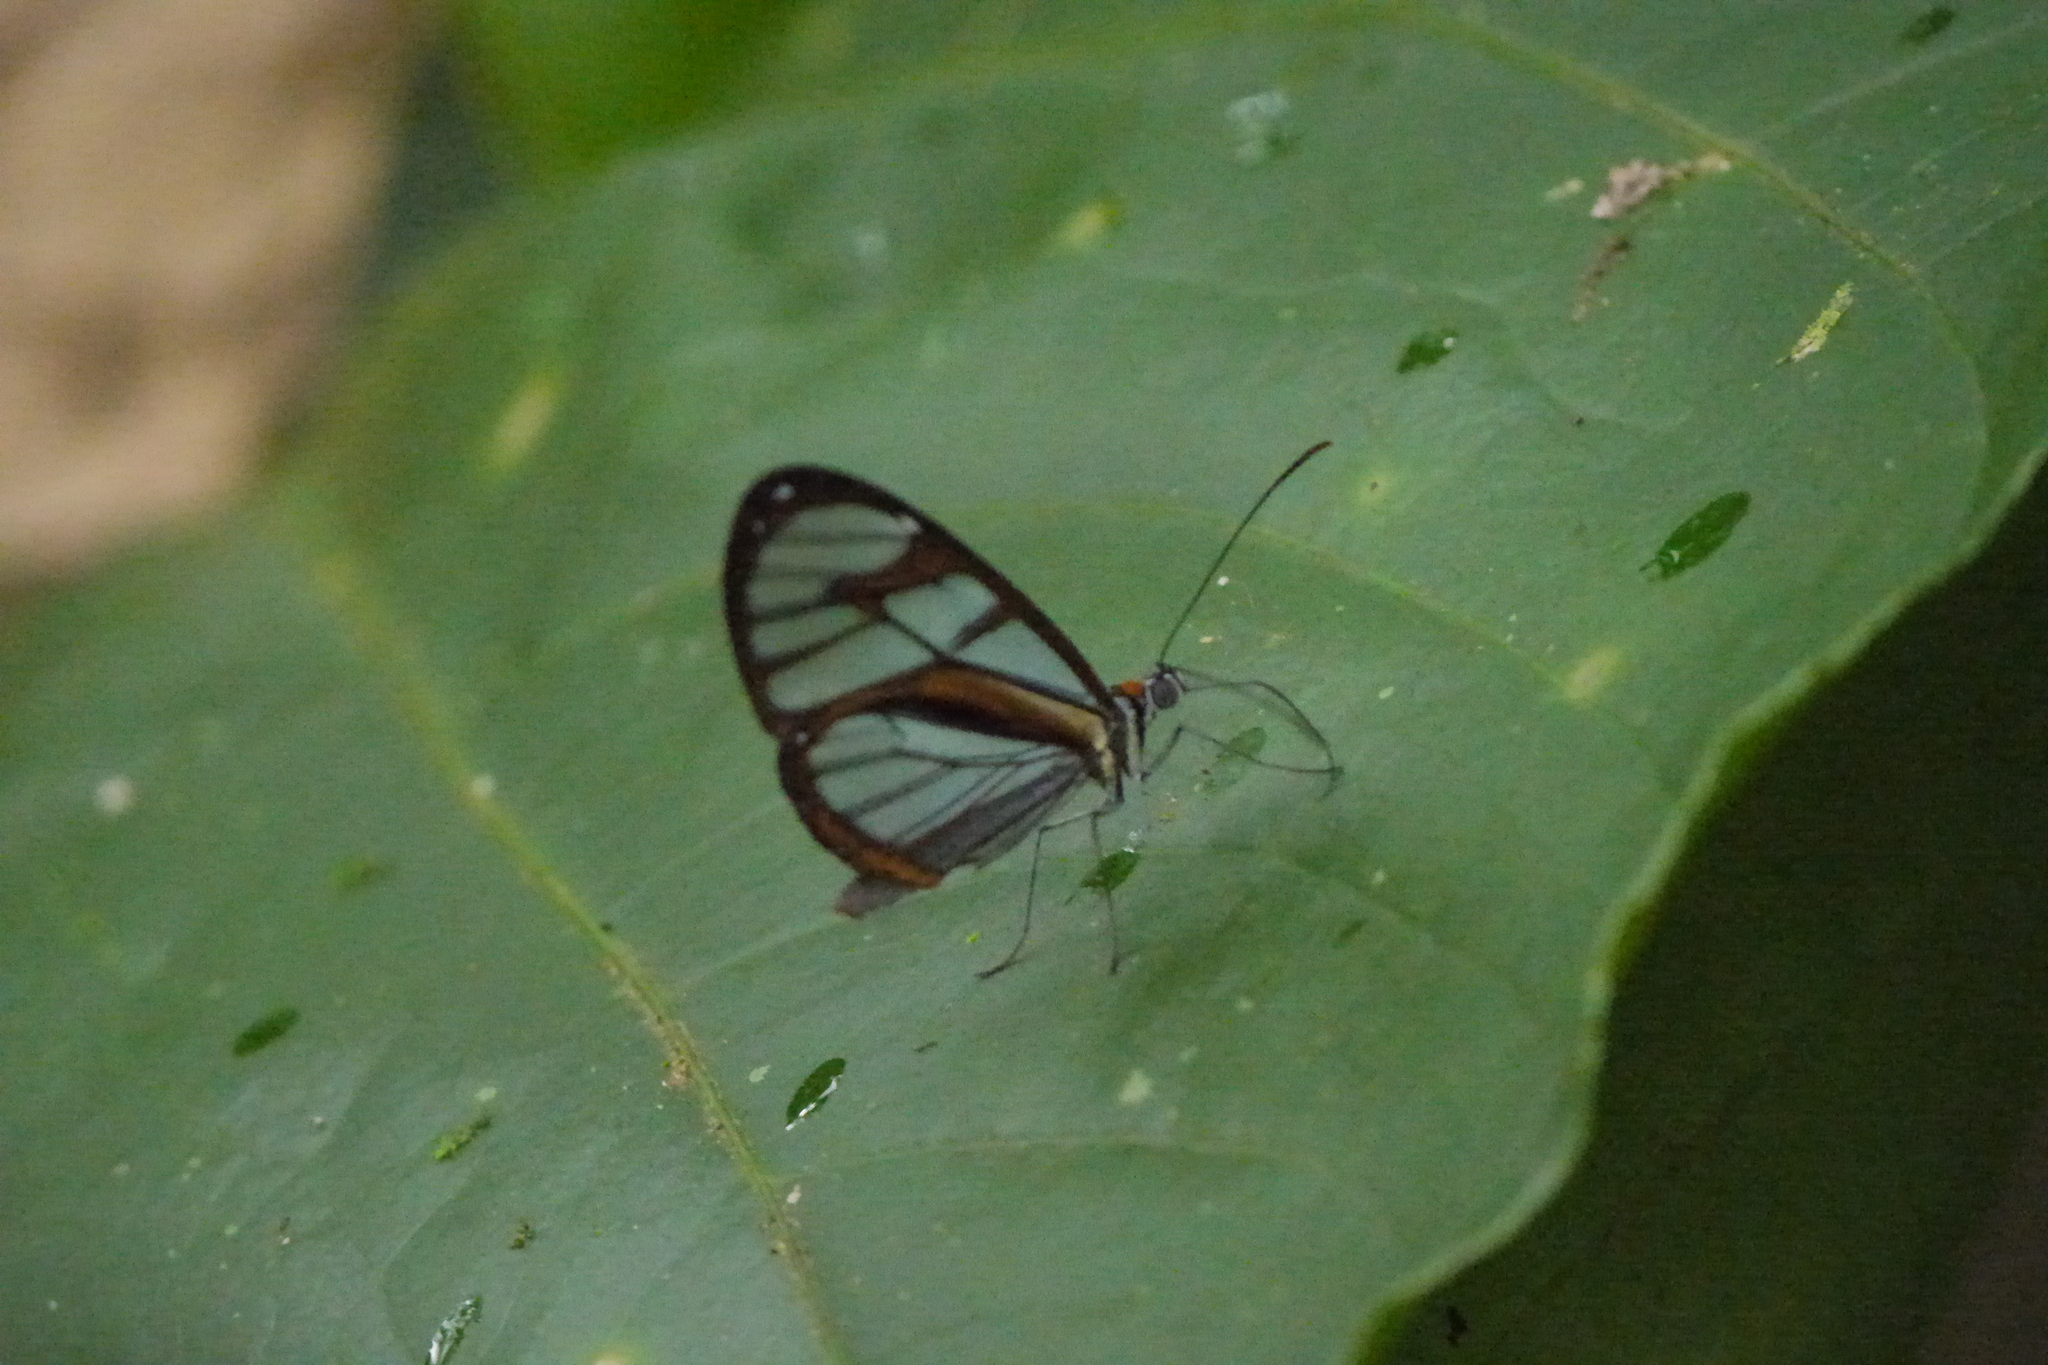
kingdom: Animalia
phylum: Arthropoda
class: Insecta
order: Lepidoptera
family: Nymphalidae
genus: Ithomia
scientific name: Ithomia diasia
